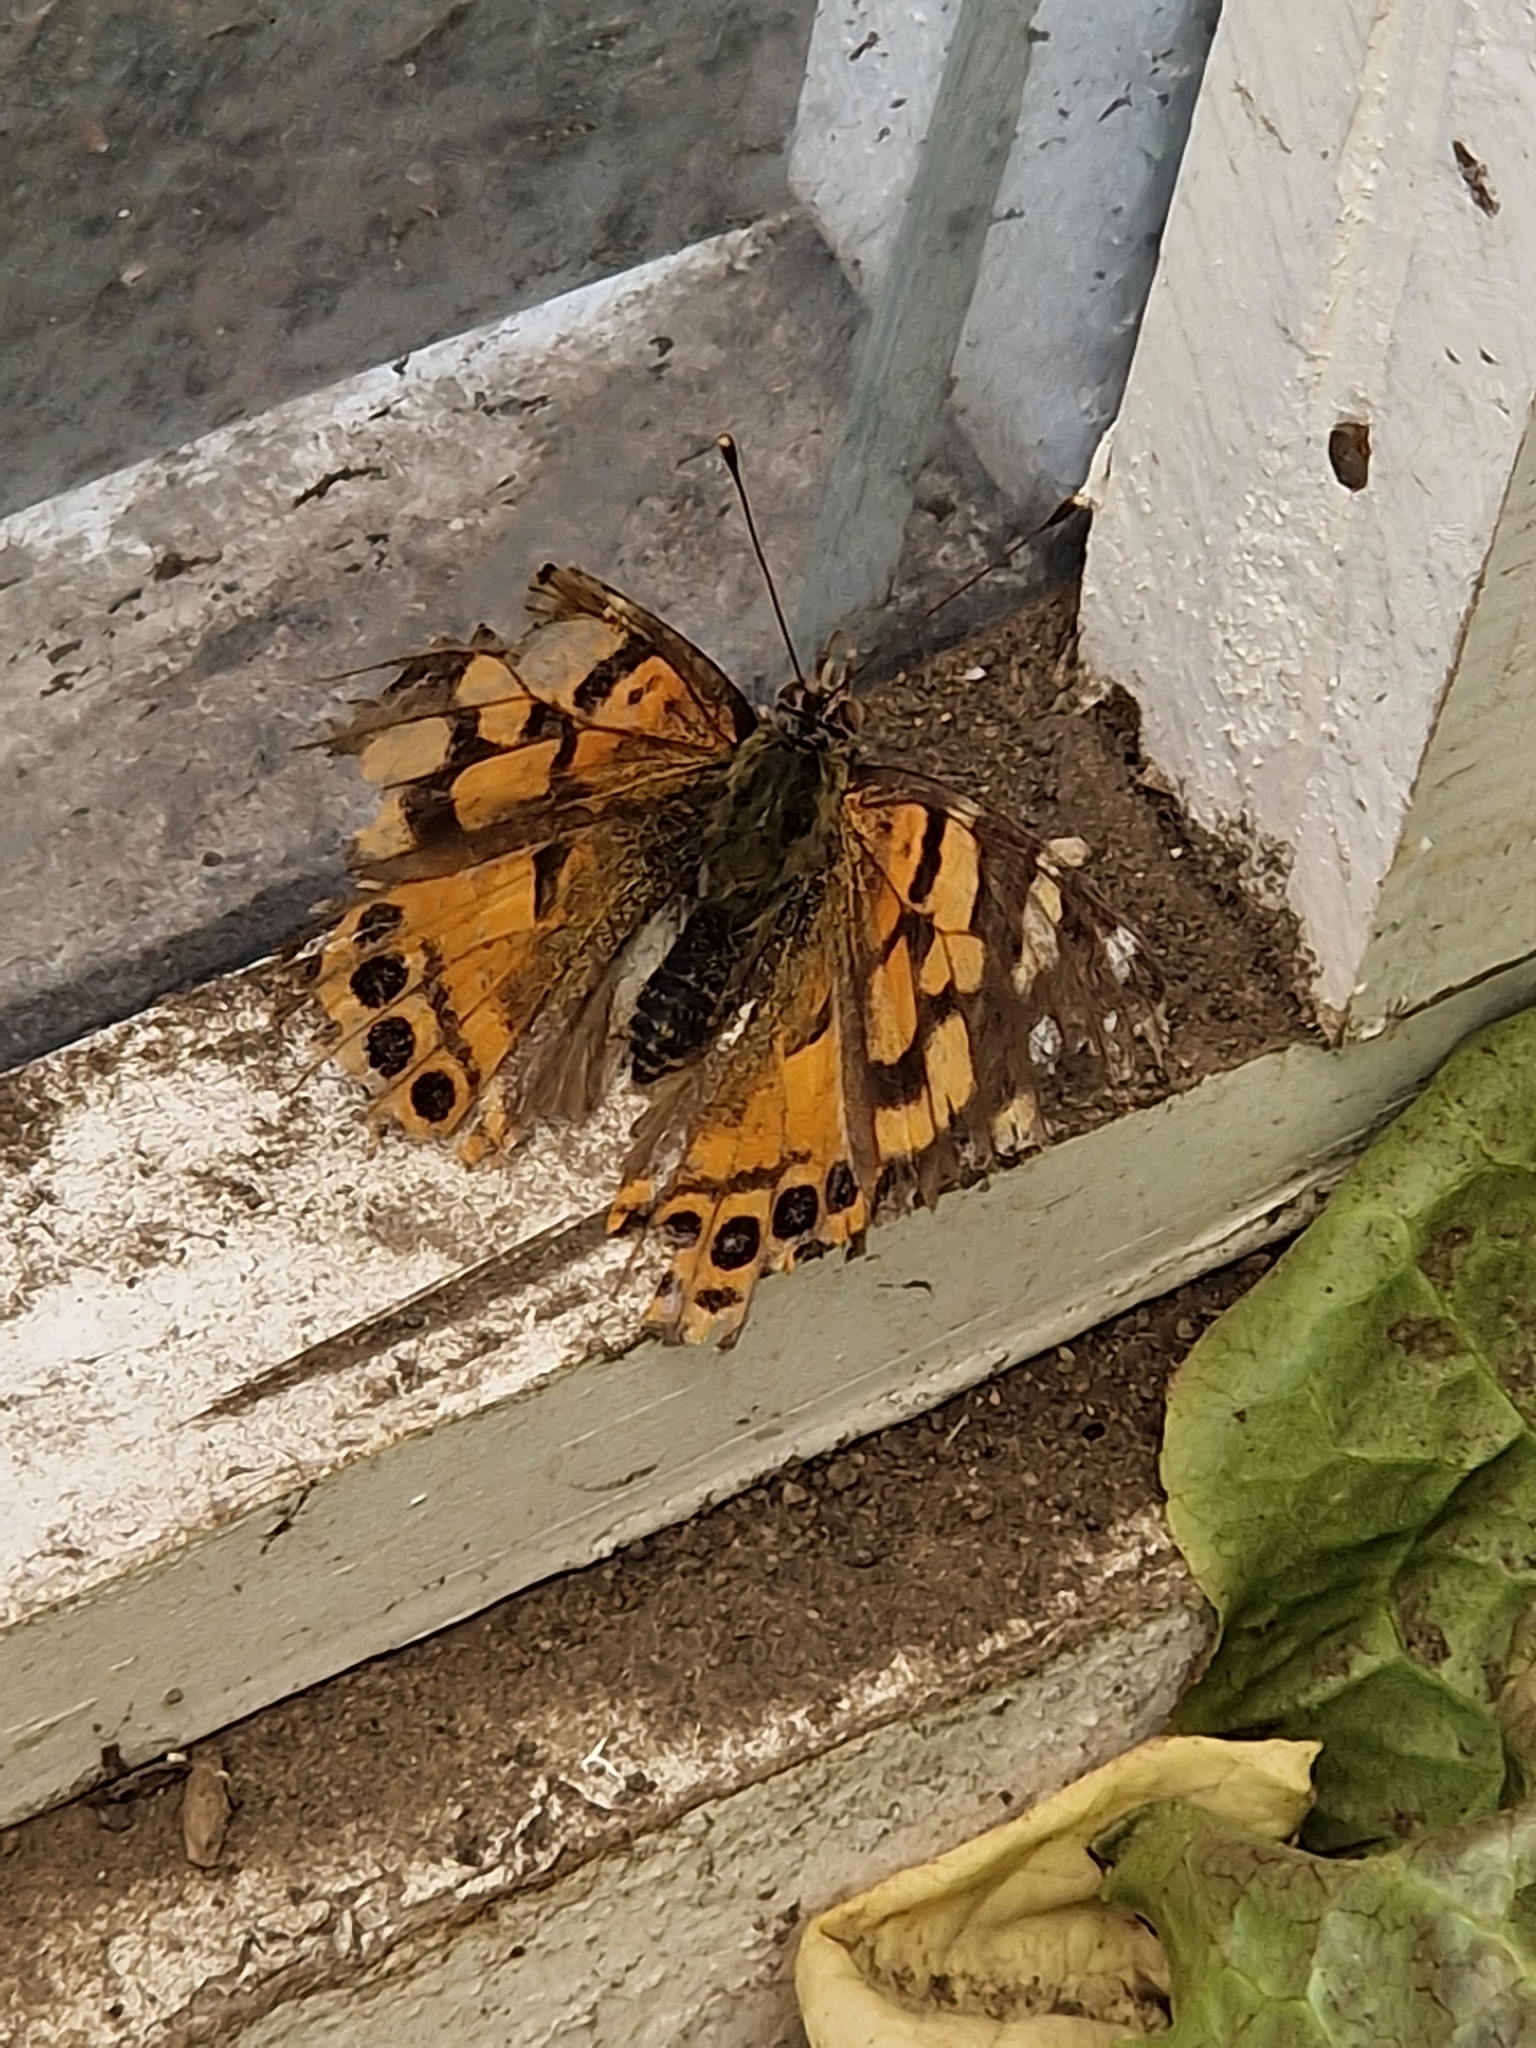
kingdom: Animalia
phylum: Arthropoda
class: Insecta
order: Lepidoptera
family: Nymphalidae
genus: Vanessa
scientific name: Vanessa carye
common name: Subtropical lady
